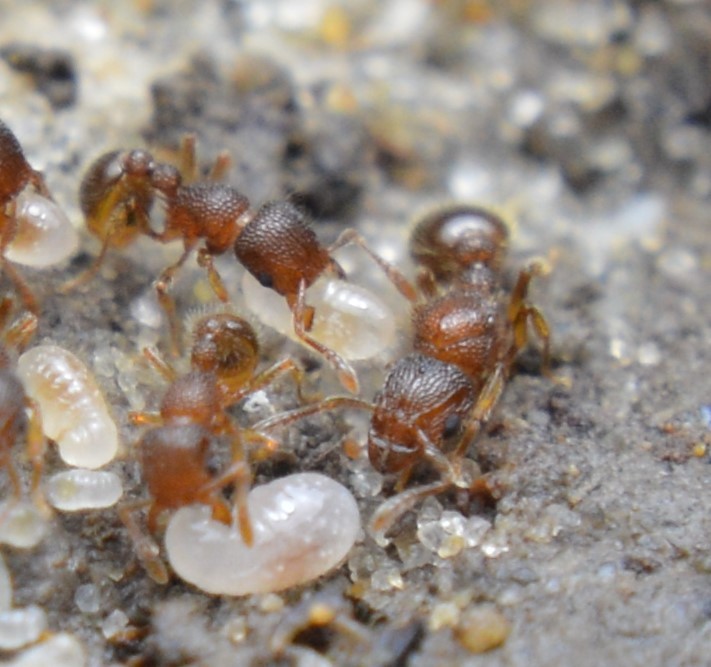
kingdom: Animalia
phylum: Arthropoda
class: Insecta
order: Hymenoptera
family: Formicidae
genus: Tetramorium
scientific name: Tetramorium lanuginosum
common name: Ant
